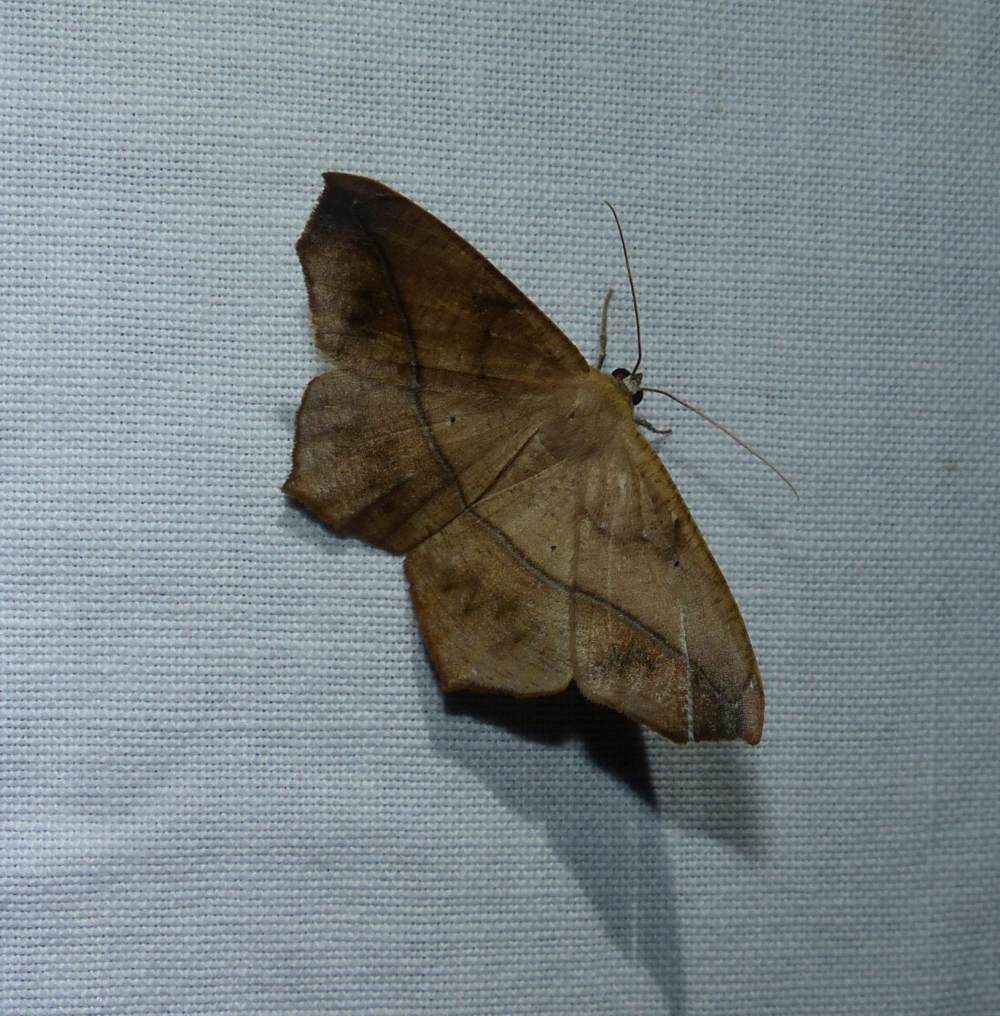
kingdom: Animalia
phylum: Arthropoda
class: Insecta
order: Lepidoptera
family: Geometridae
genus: Prochoerodes
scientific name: Prochoerodes lineola
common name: Large maple spanworm
